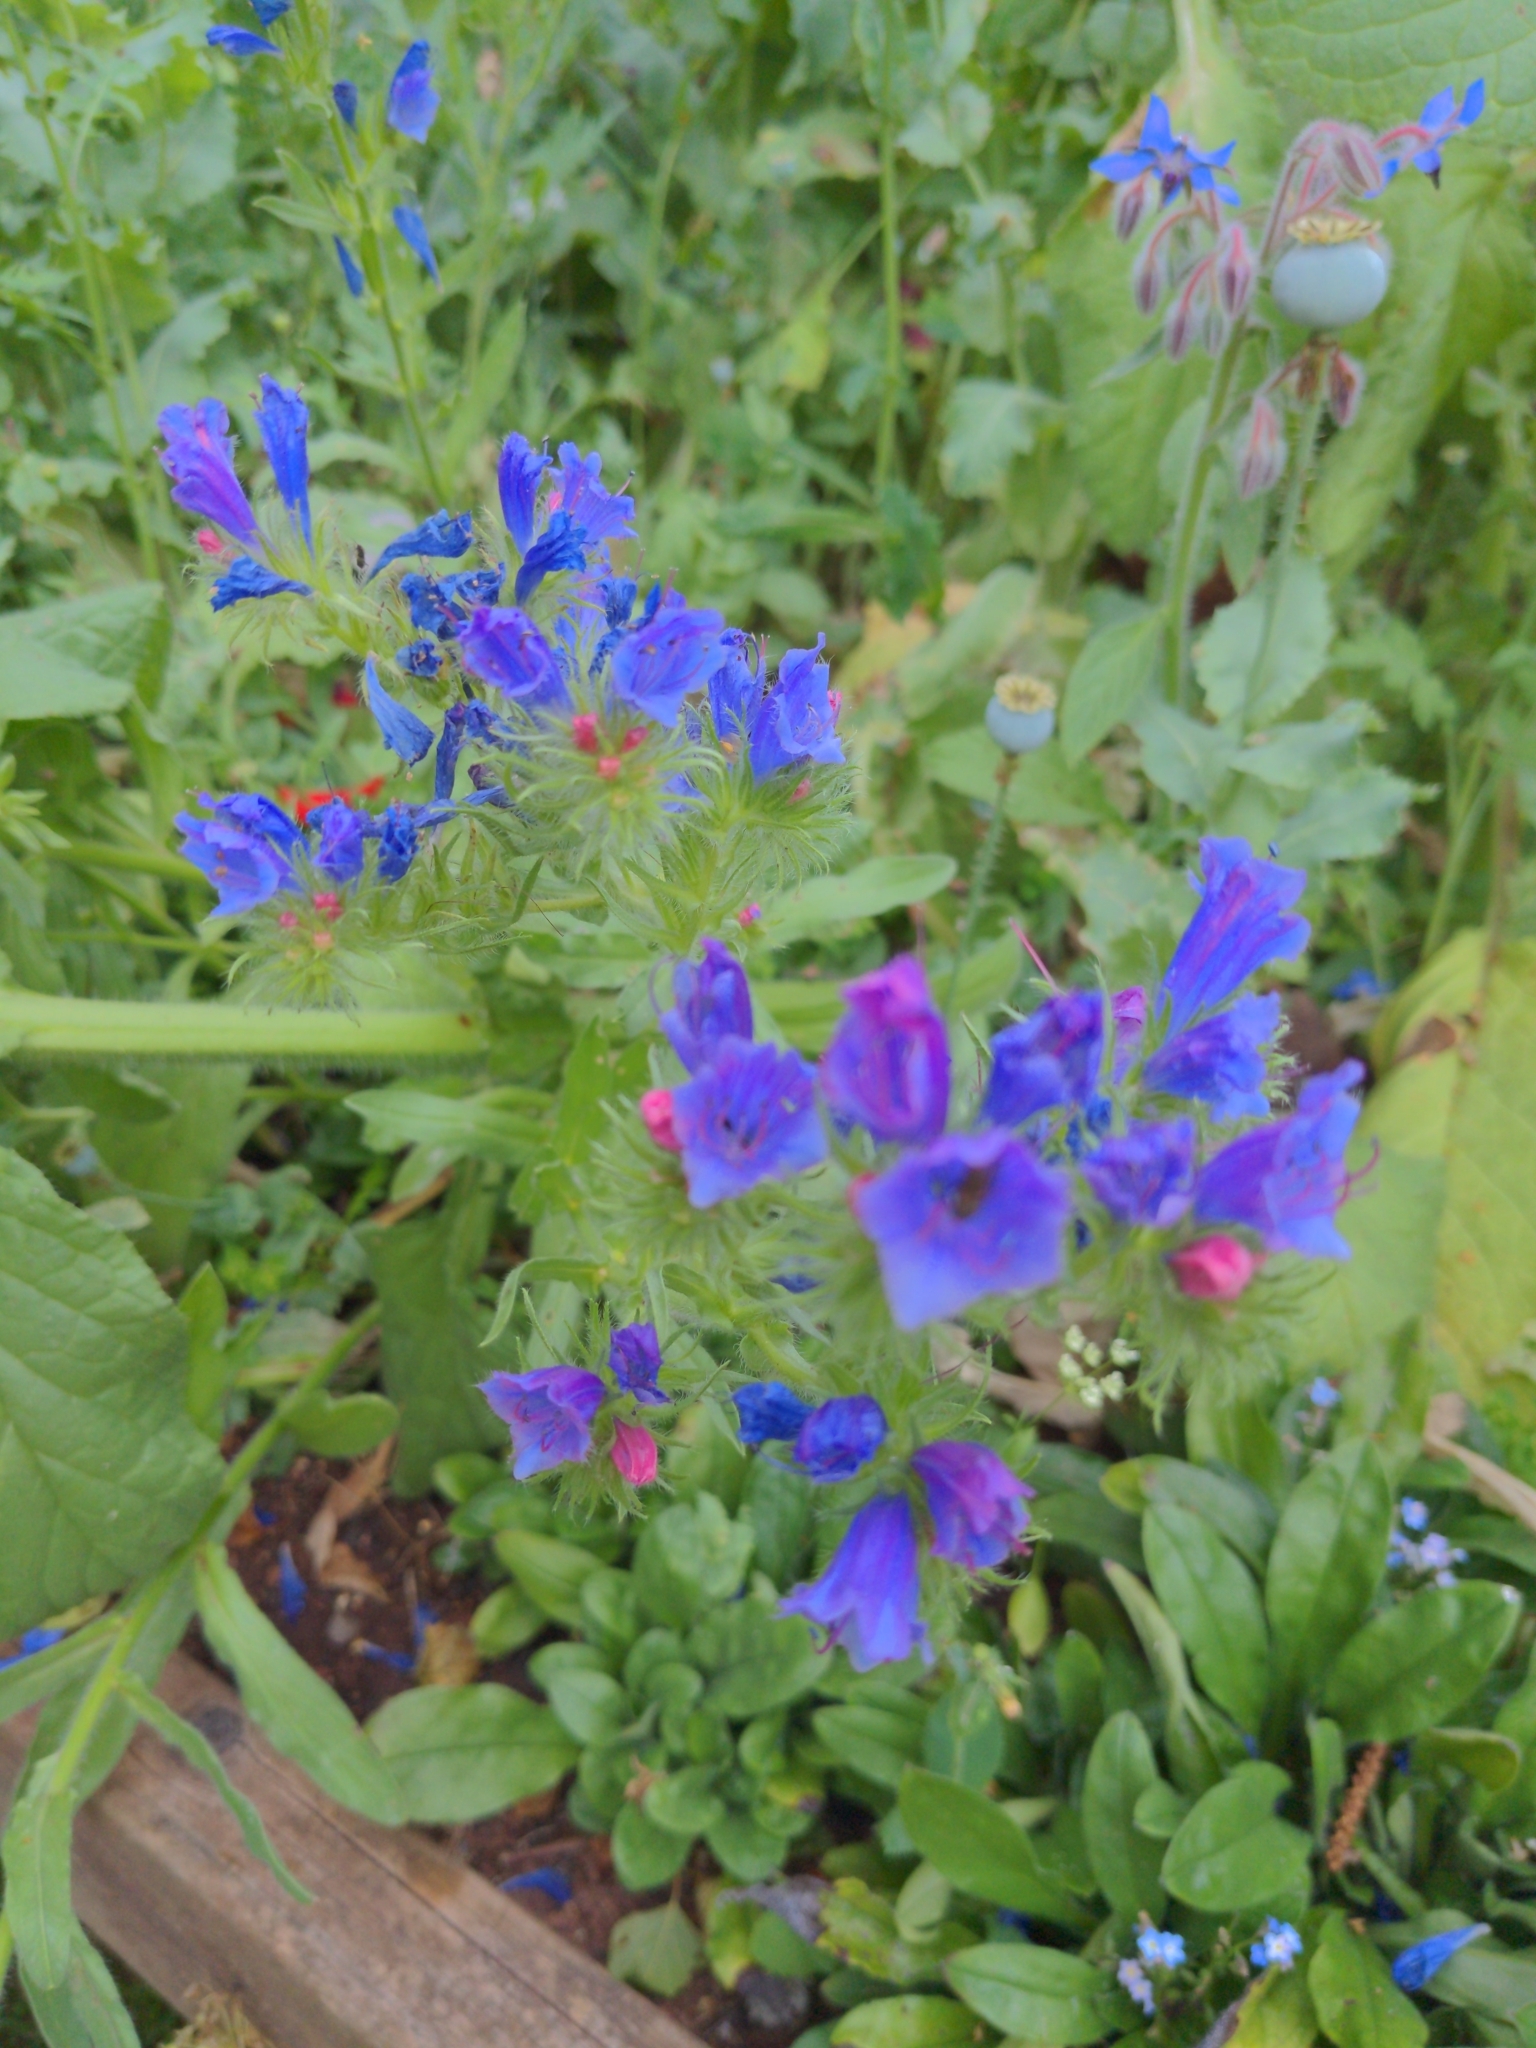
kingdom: Plantae
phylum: Tracheophyta
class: Magnoliopsida
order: Boraginales
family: Boraginaceae
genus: Echium
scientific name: Echium vulgare
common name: Common viper's bugloss
